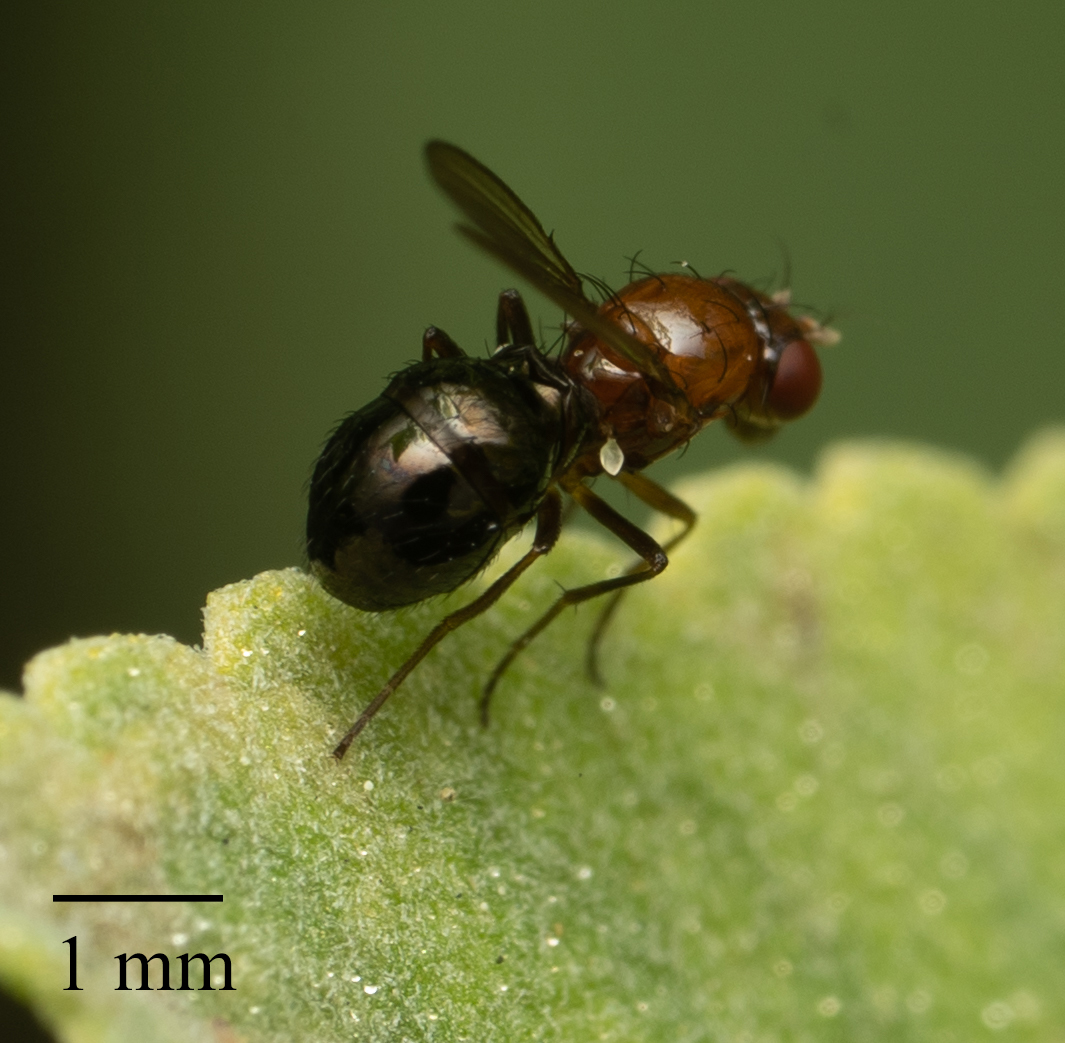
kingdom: Animalia
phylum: Arthropoda
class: Insecta
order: Diptera
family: Camillidae
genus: Afrocamilla
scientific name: Afrocamilla bispinosa
